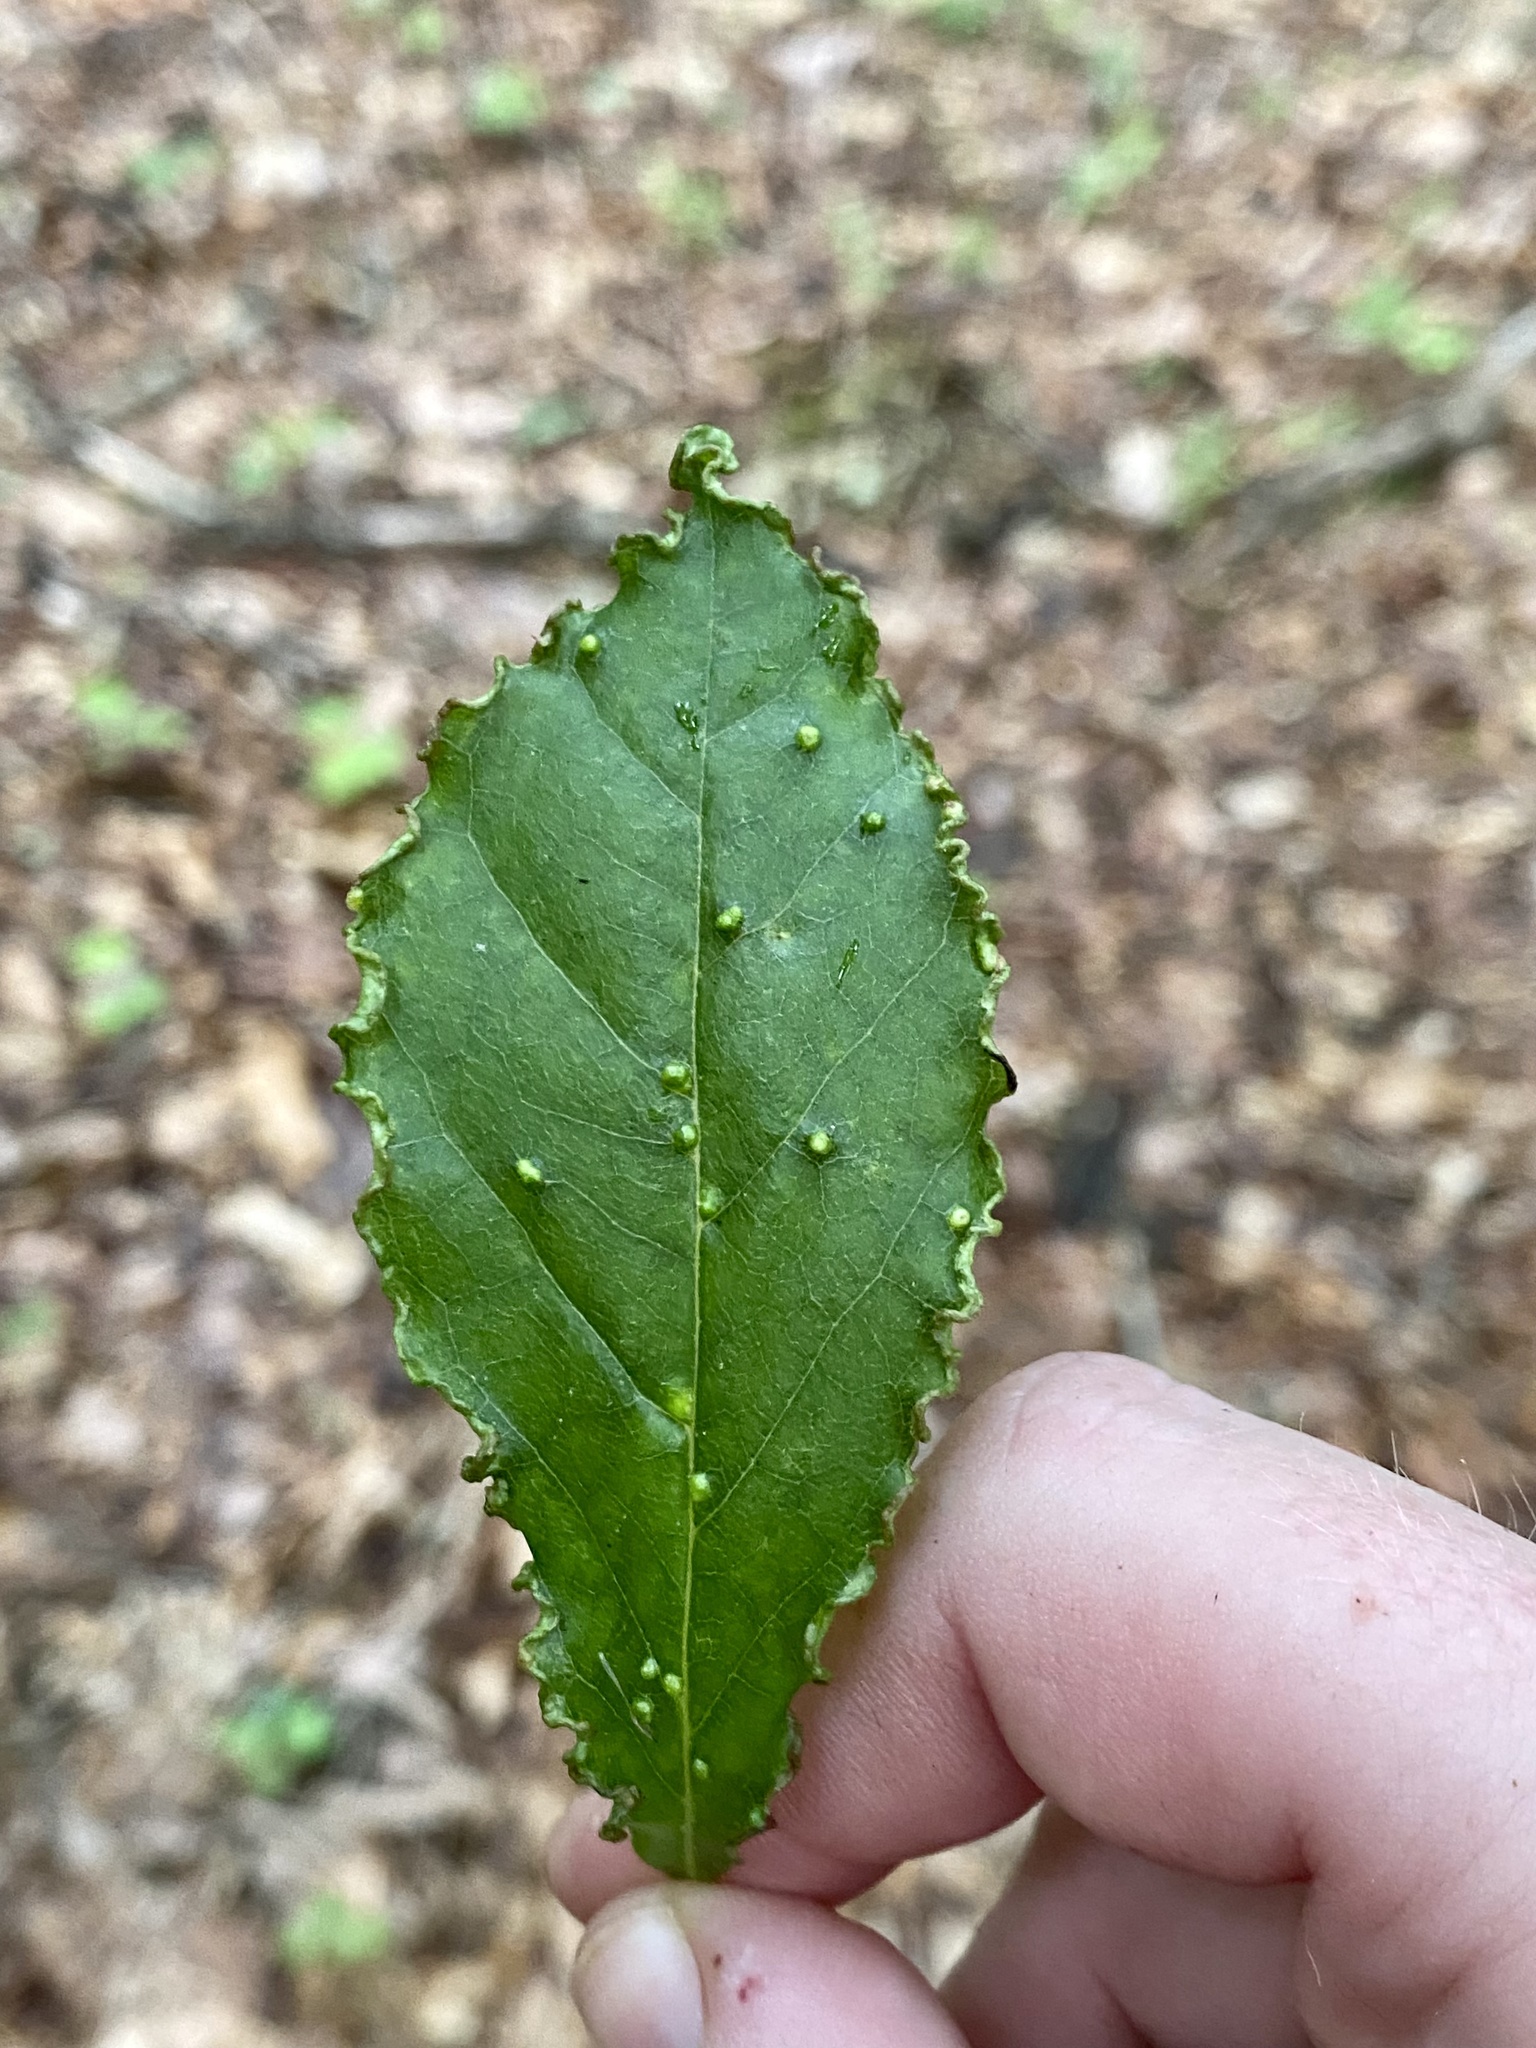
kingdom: Animalia
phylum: Arthropoda
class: Arachnida
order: Trombidiformes
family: Eriophyidae
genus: Aceria
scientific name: Aceria
